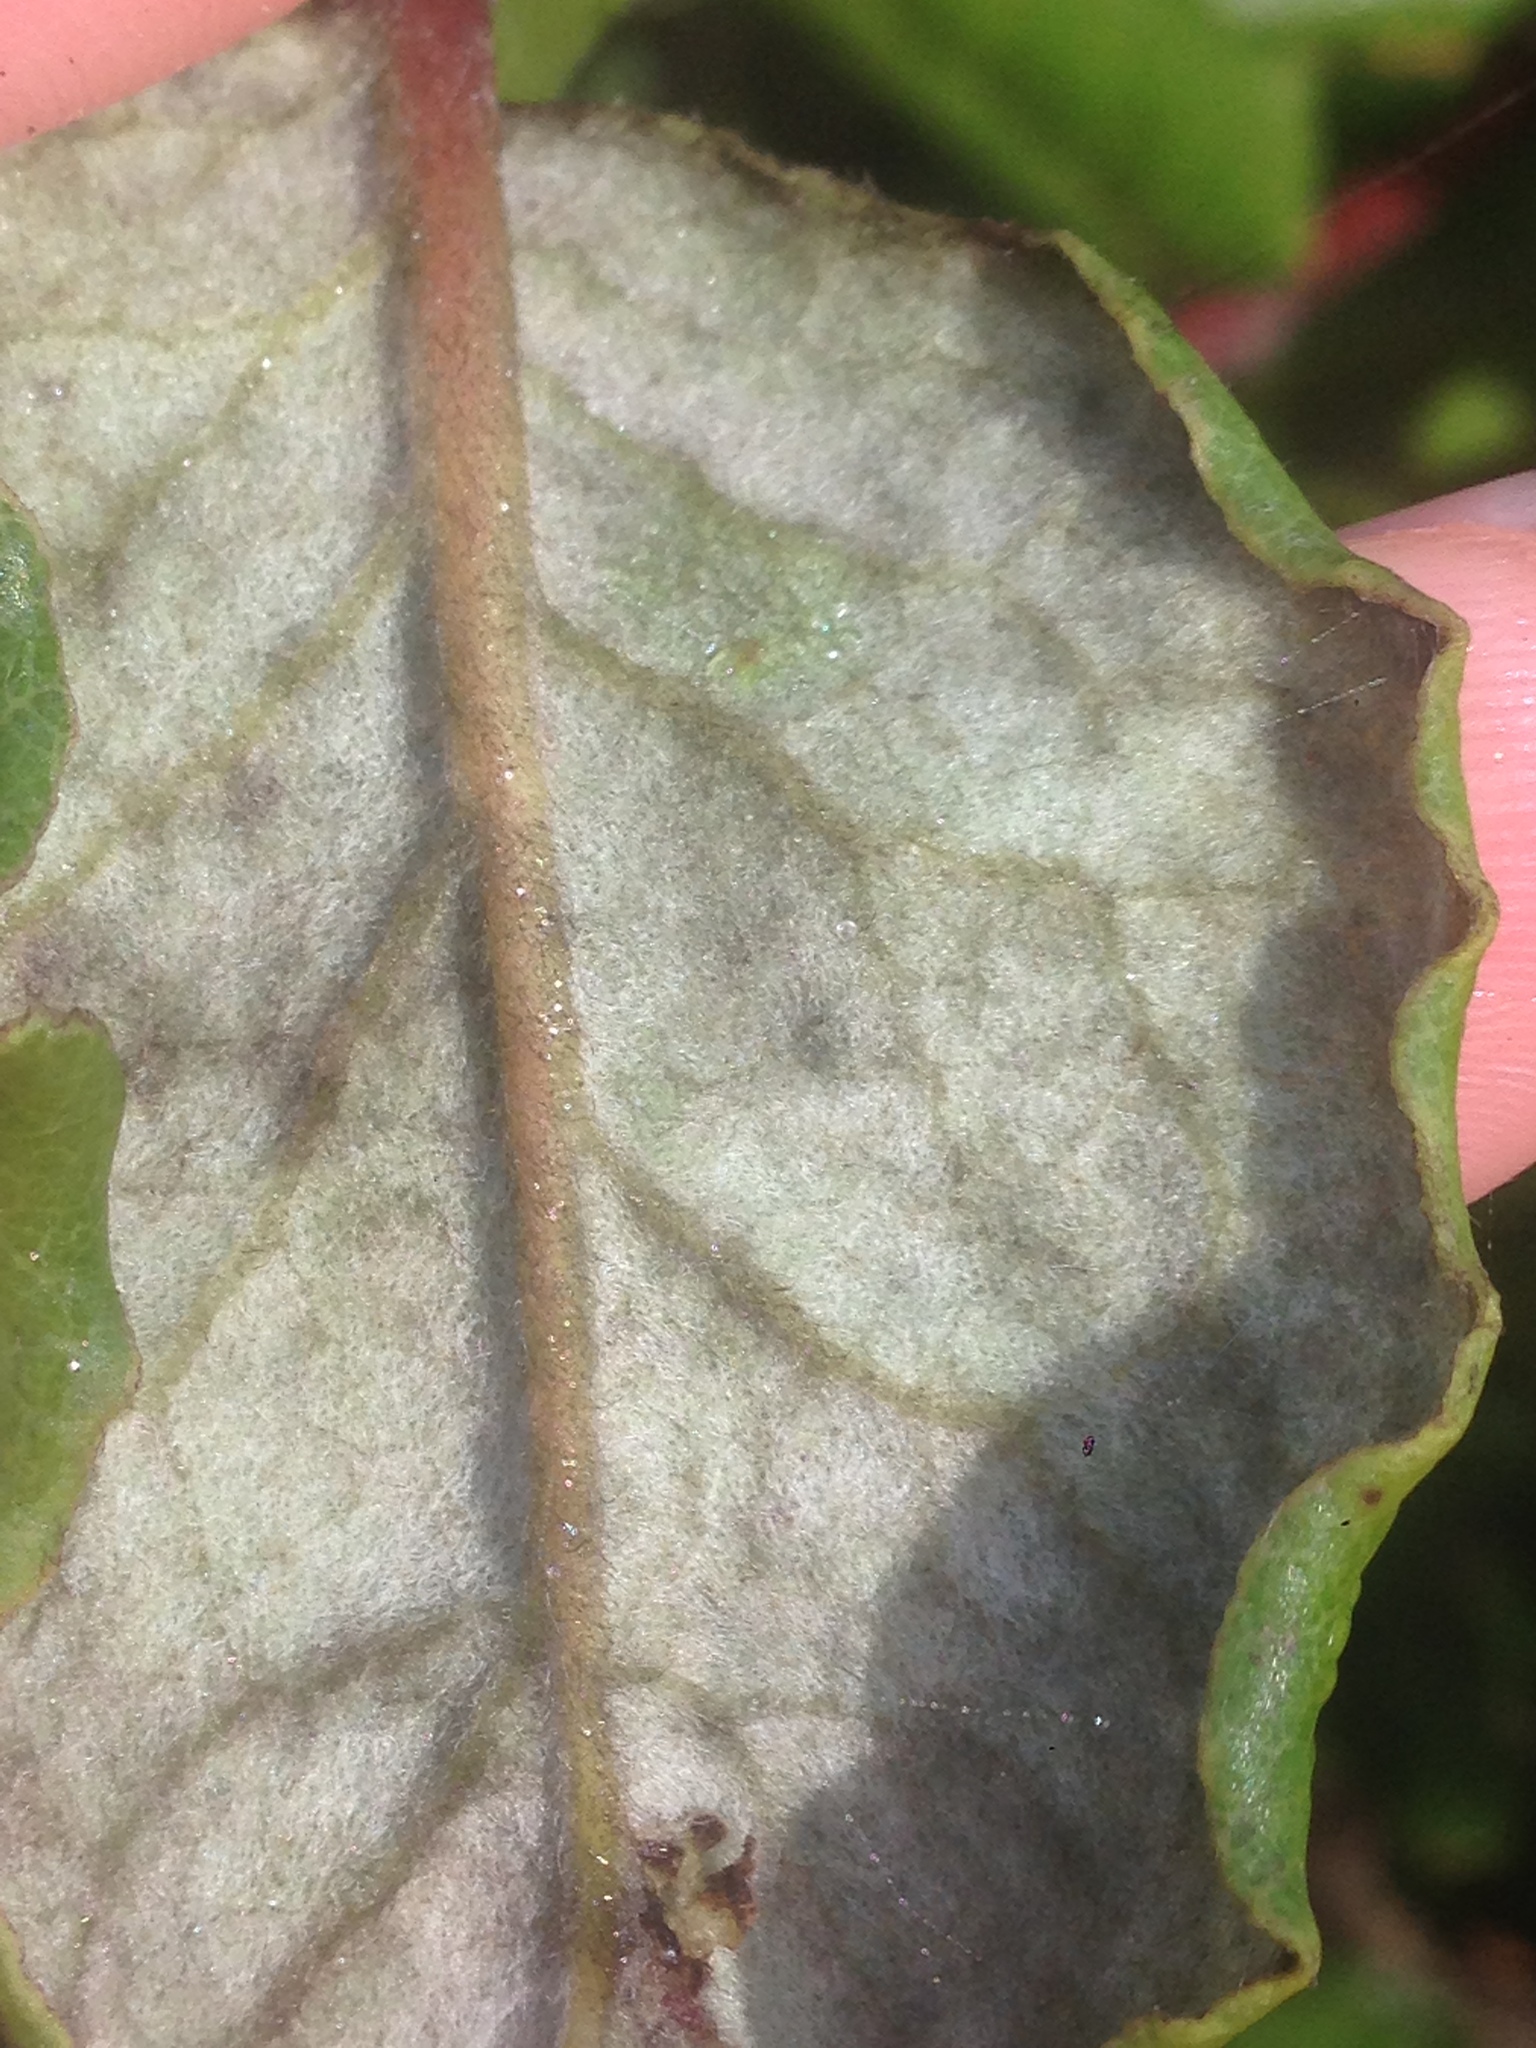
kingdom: Plantae
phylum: Tracheophyta
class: Magnoliopsida
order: Garryales
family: Garryaceae
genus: Garrya
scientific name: Garrya elliptica
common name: Silk-tassel
